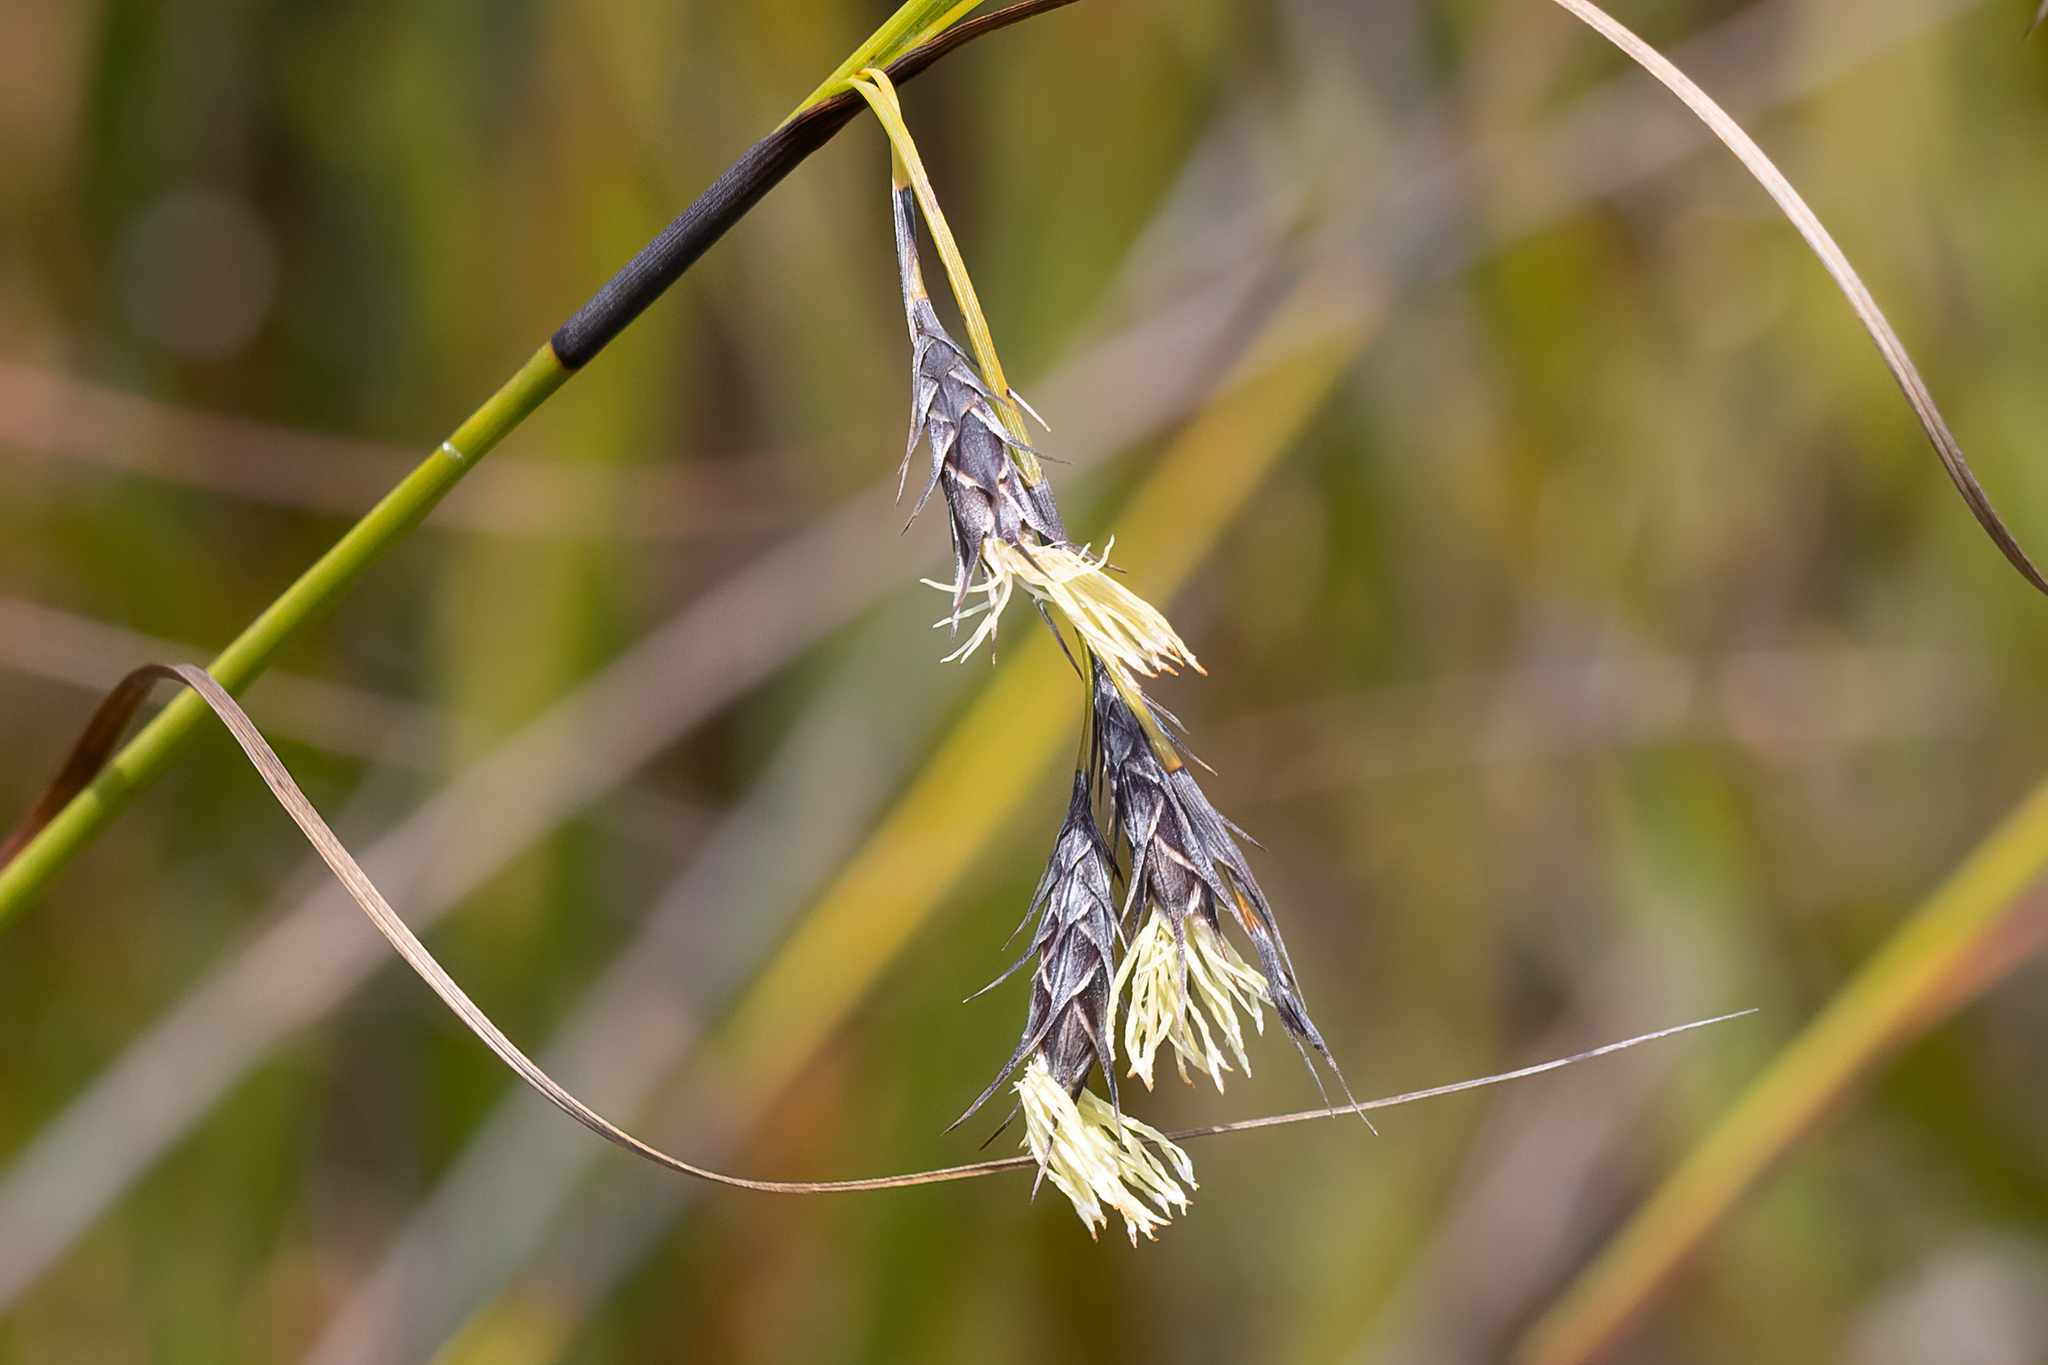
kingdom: Plantae
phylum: Tracheophyta
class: Liliopsida
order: Poales
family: Cyperaceae
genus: Evandra
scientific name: Evandra aristata
